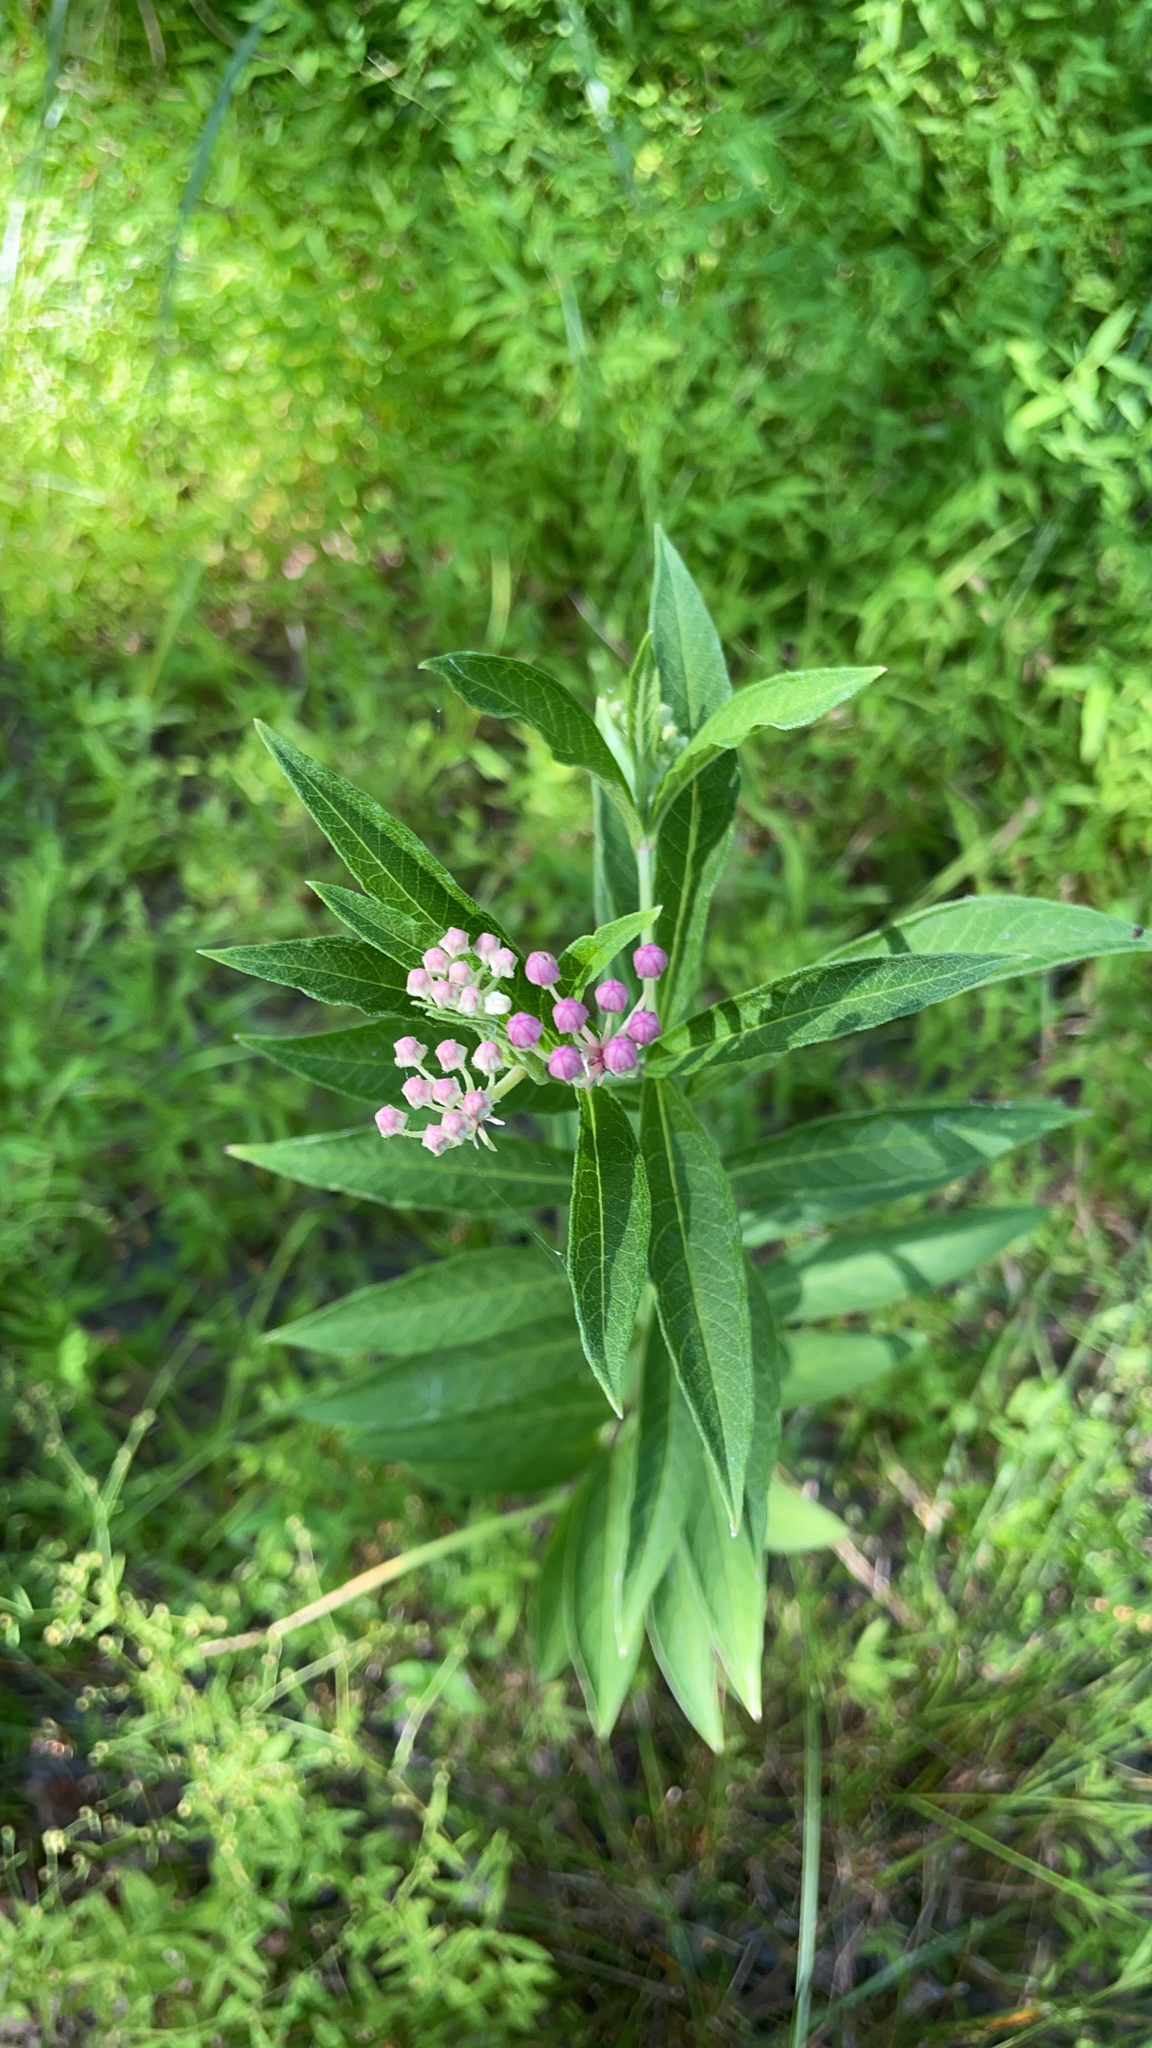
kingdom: Plantae
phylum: Tracheophyta
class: Magnoliopsida
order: Gentianales
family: Apocynaceae
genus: Asclepias
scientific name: Asclepias incarnata
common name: Swamp milkweed
